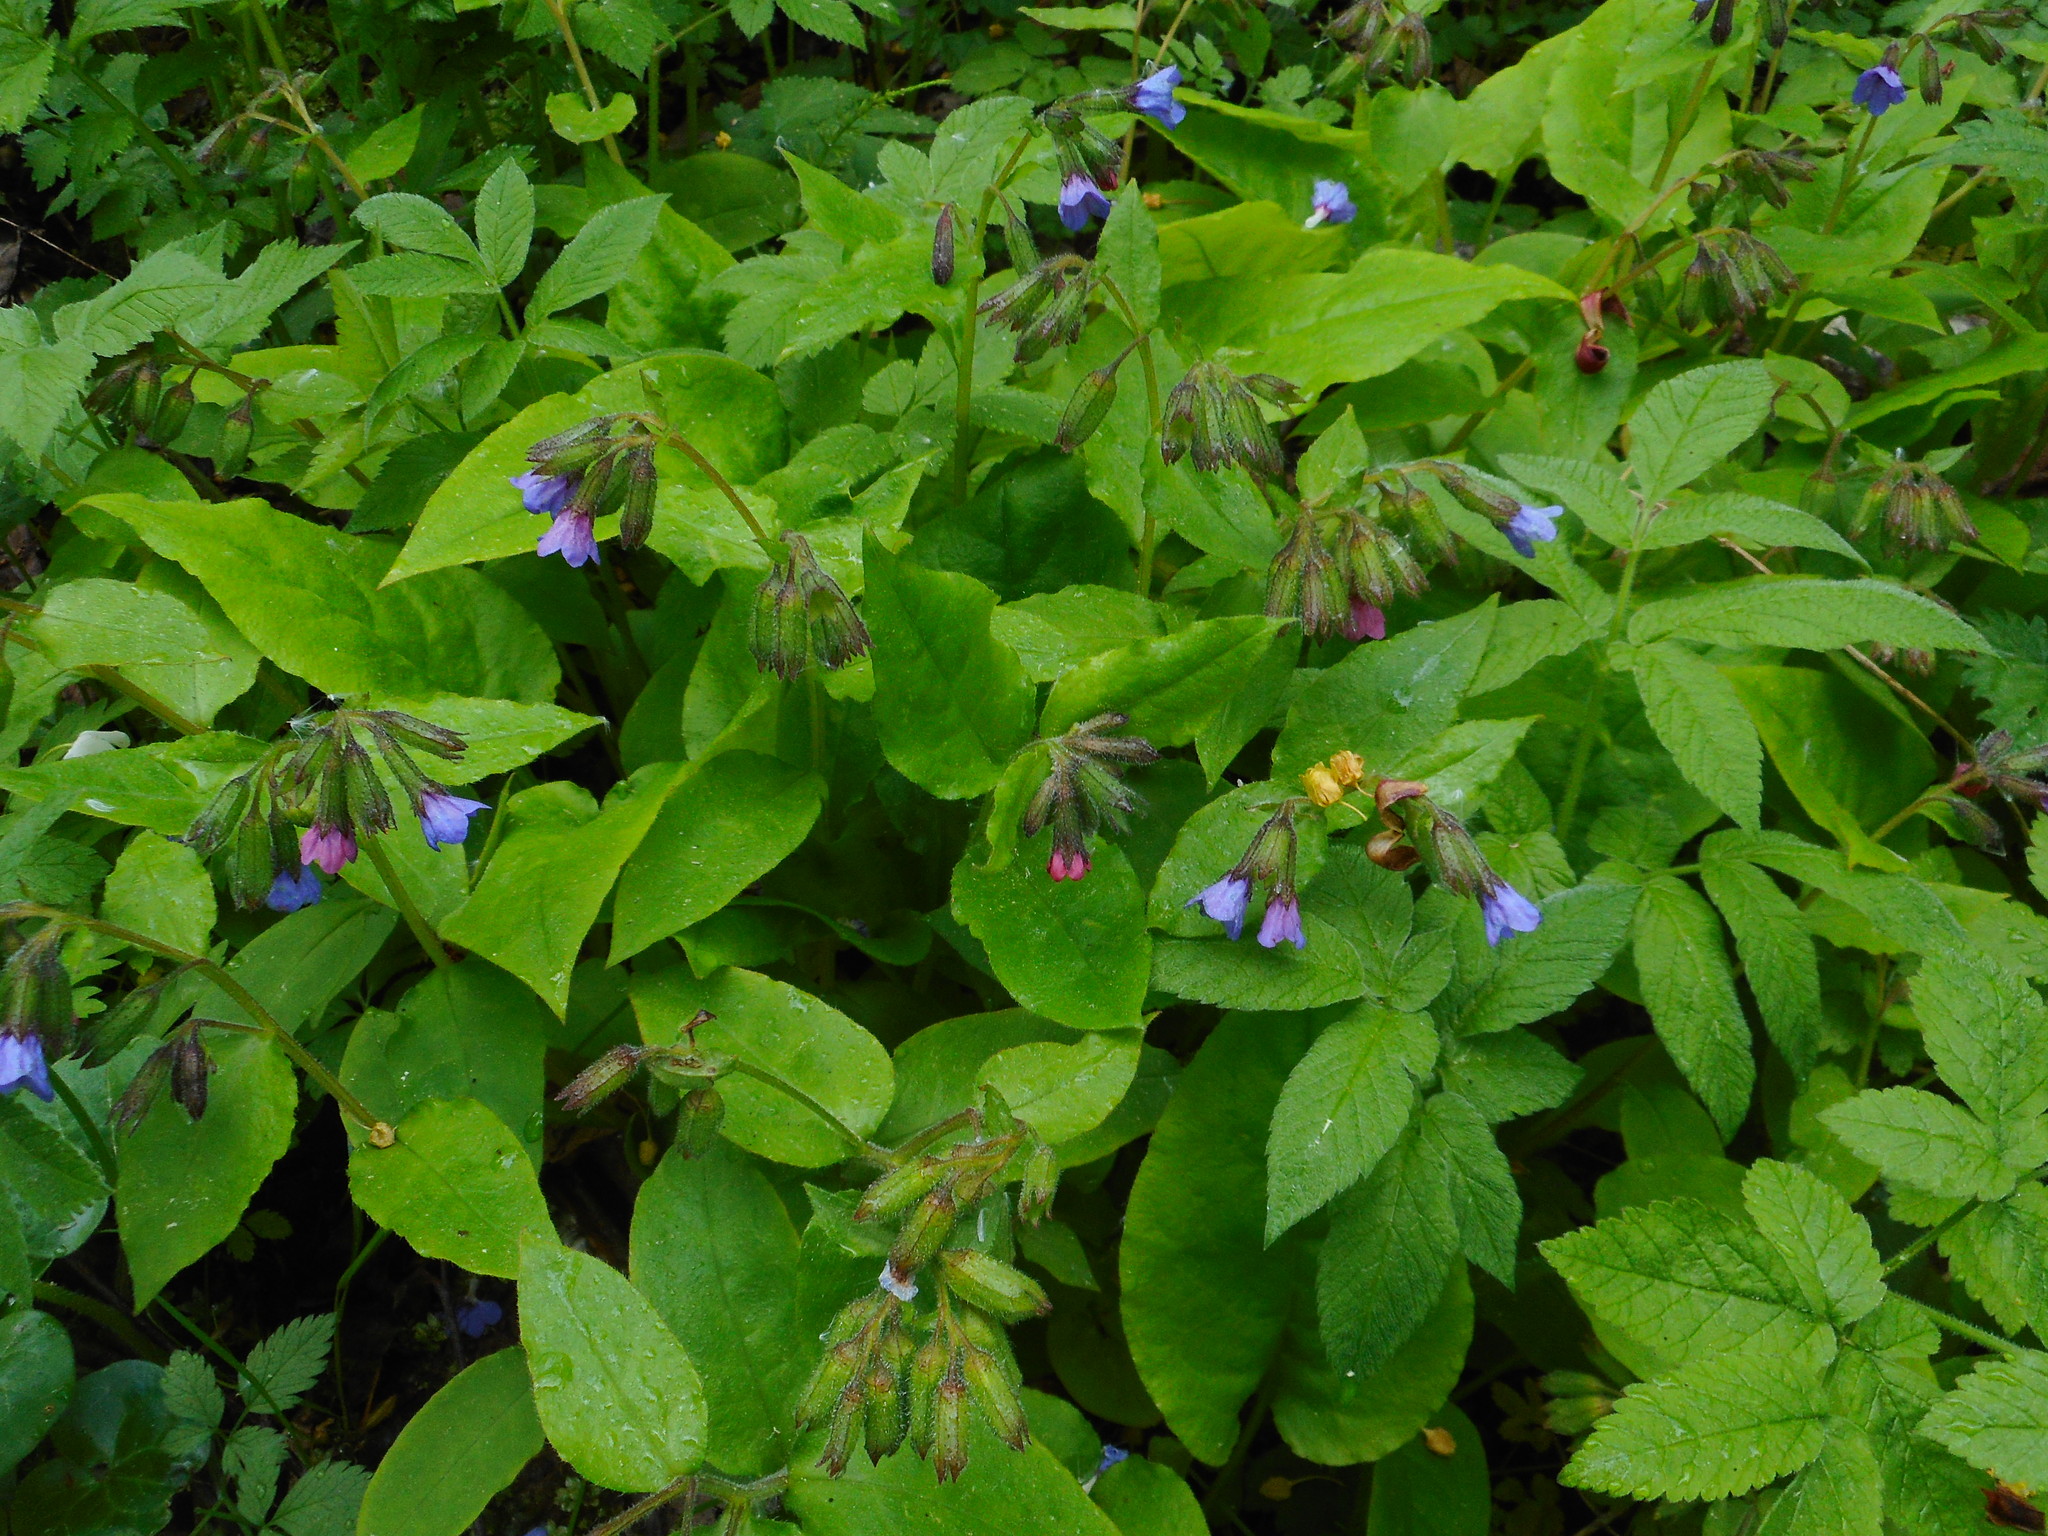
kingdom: Plantae
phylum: Tracheophyta
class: Magnoliopsida
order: Boraginales
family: Boraginaceae
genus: Pulmonaria
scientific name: Pulmonaria obscura
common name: Suffolk lungwort
